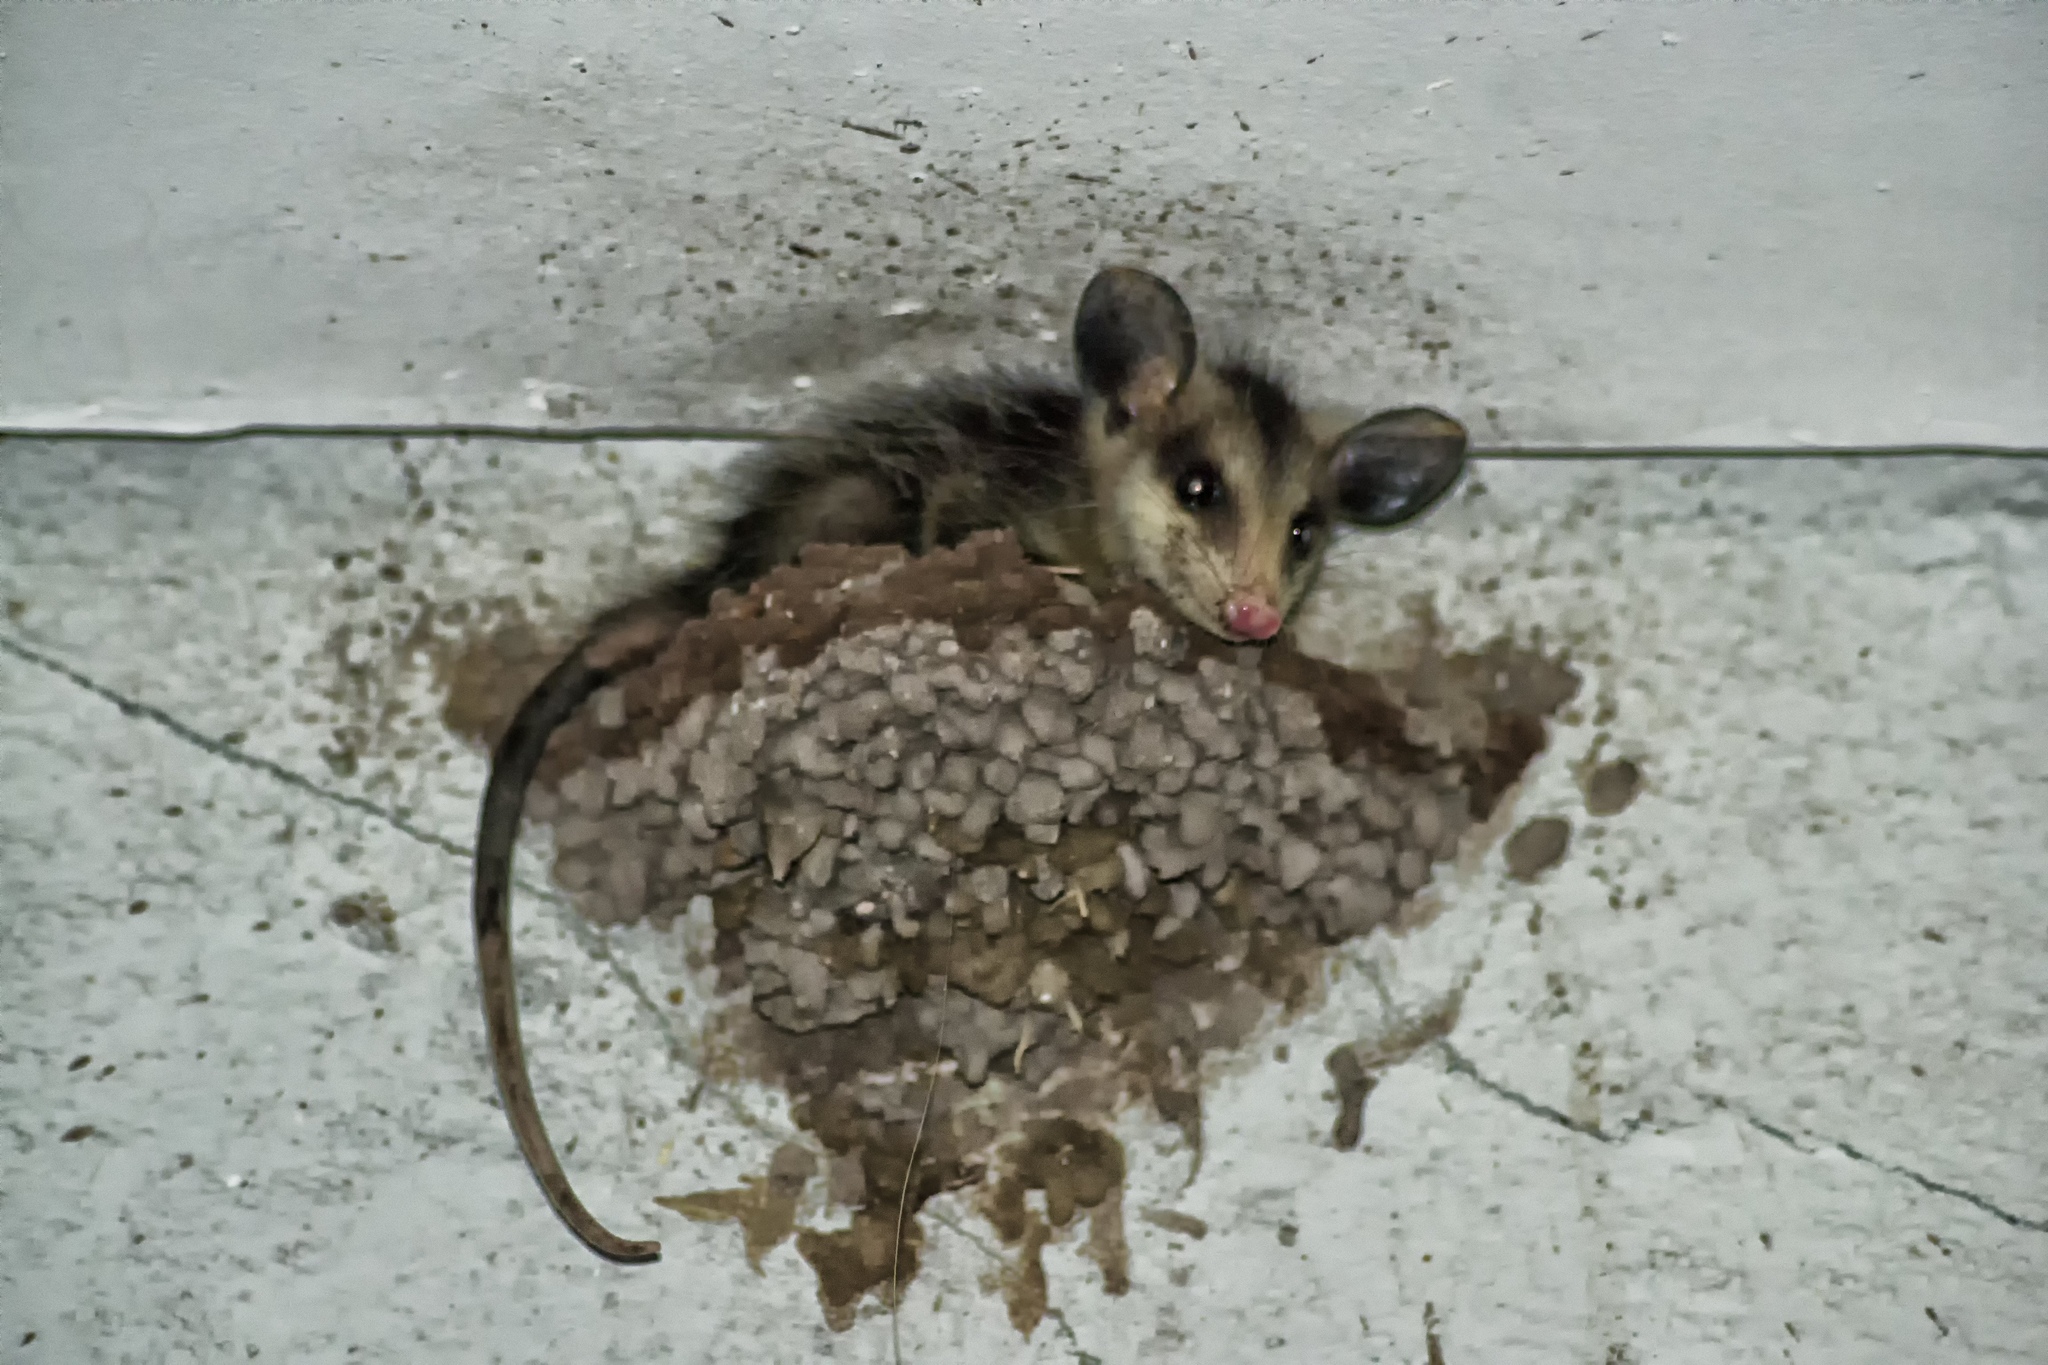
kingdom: Animalia
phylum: Chordata
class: Mammalia
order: Didelphimorphia
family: Didelphidae
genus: Didelphis
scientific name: Didelphis virginiana
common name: Virginia opossum
